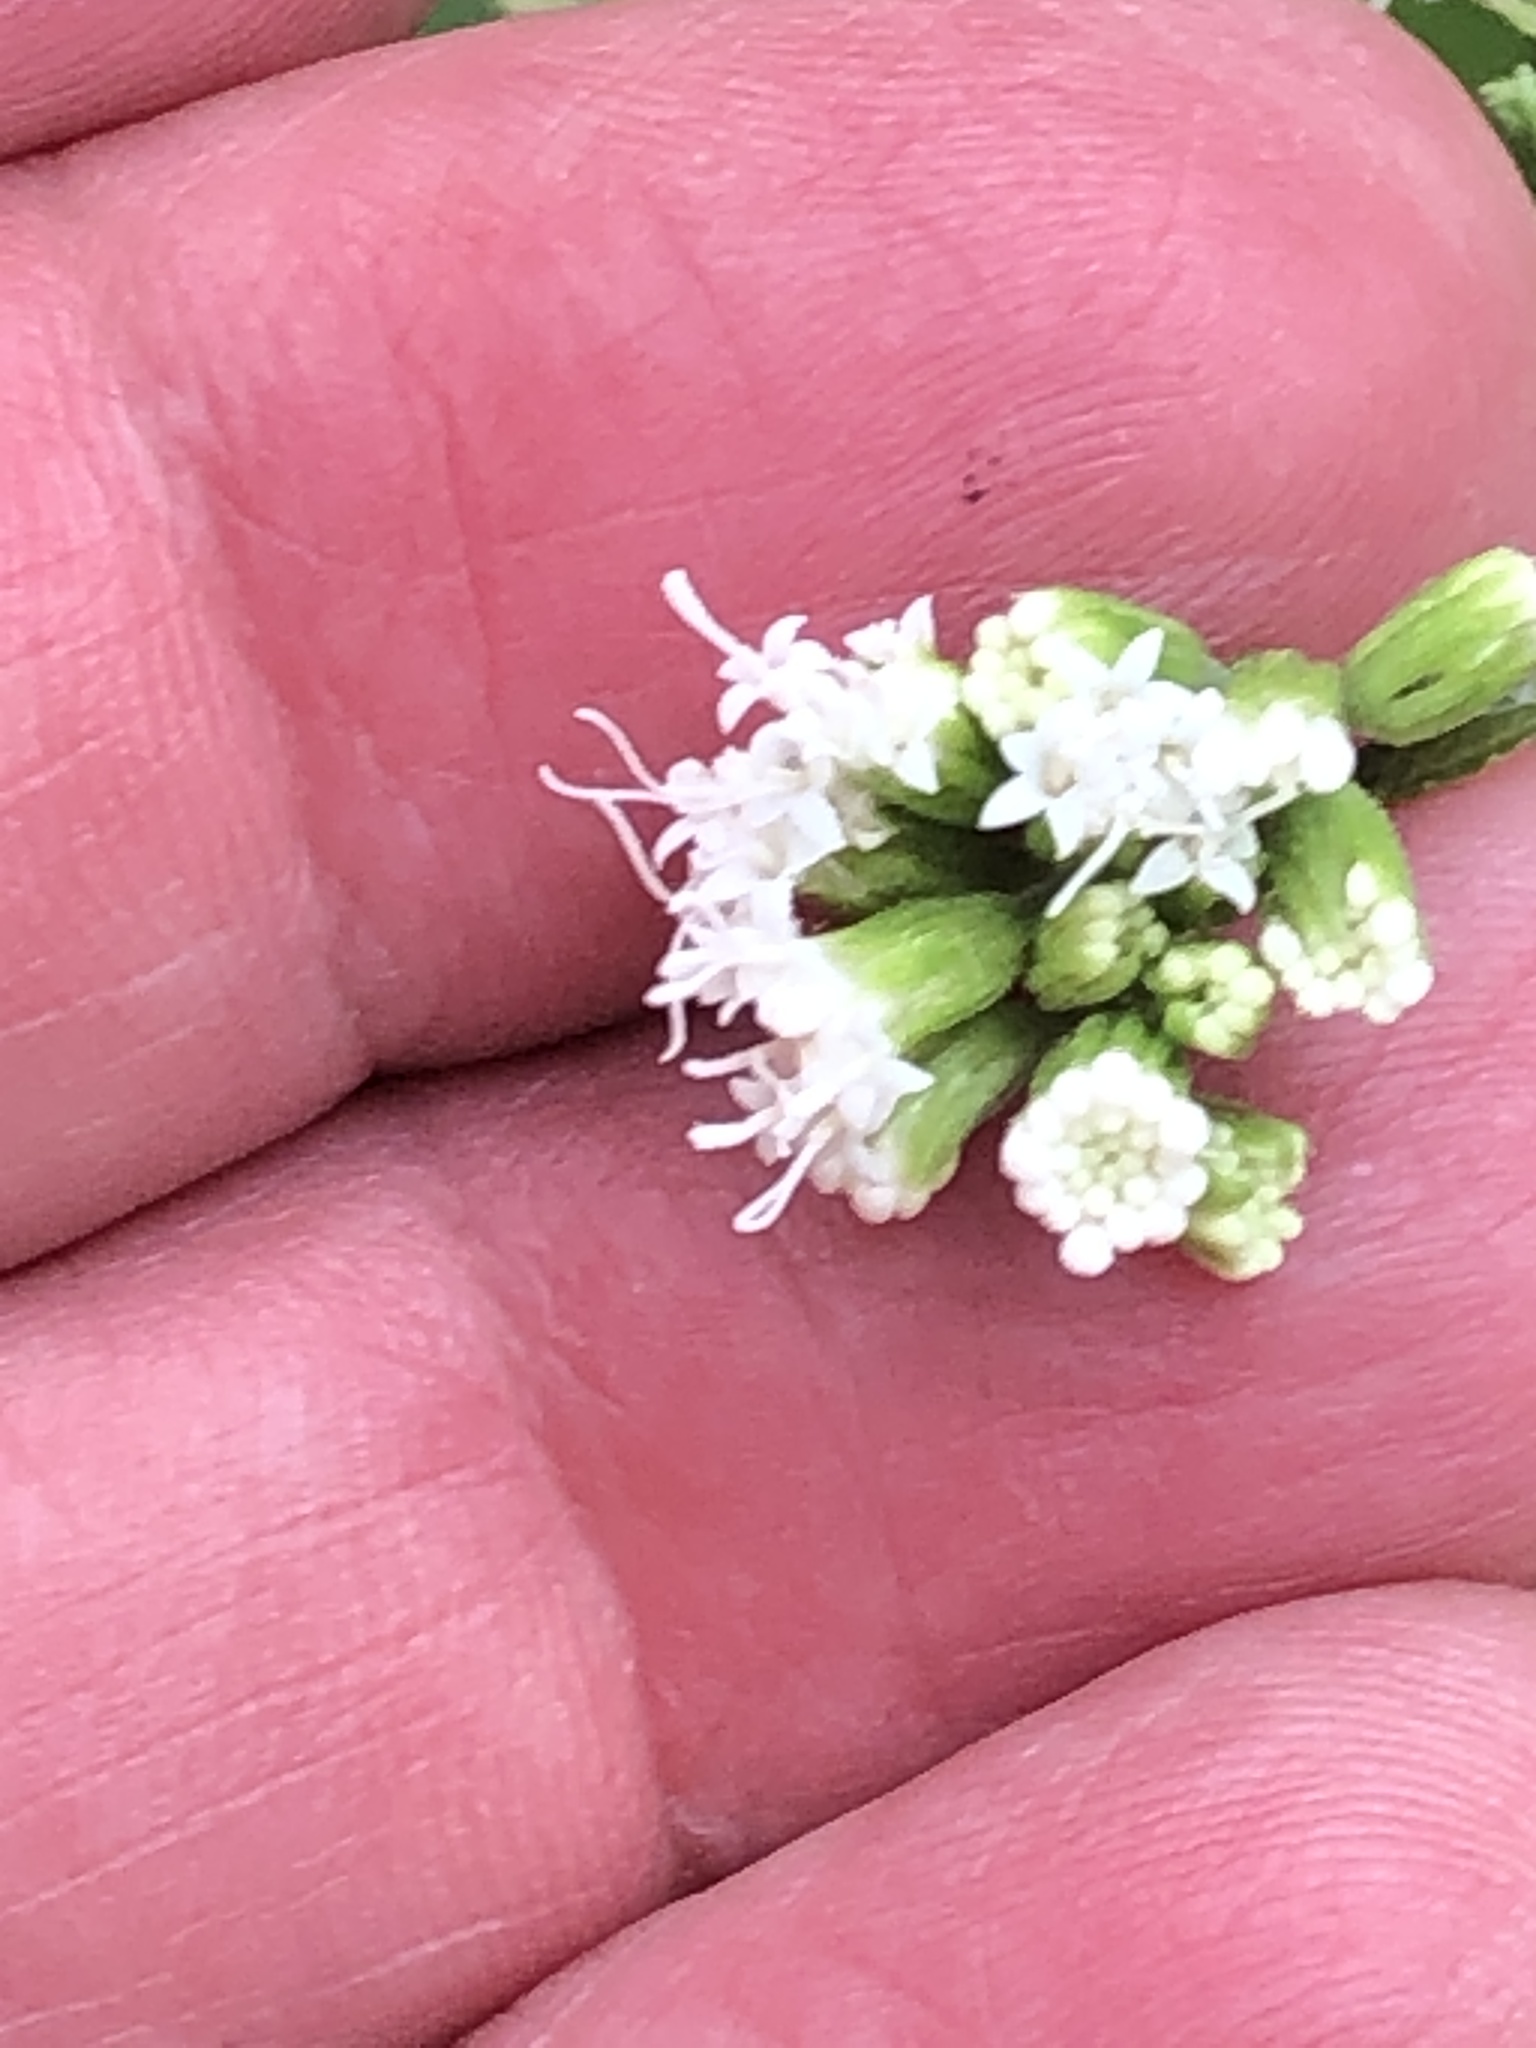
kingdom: Plantae
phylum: Tracheophyta
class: Magnoliopsida
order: Asterales
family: Asteraceae
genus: Ageratina
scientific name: Ageratina altissima
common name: White snakeroot
